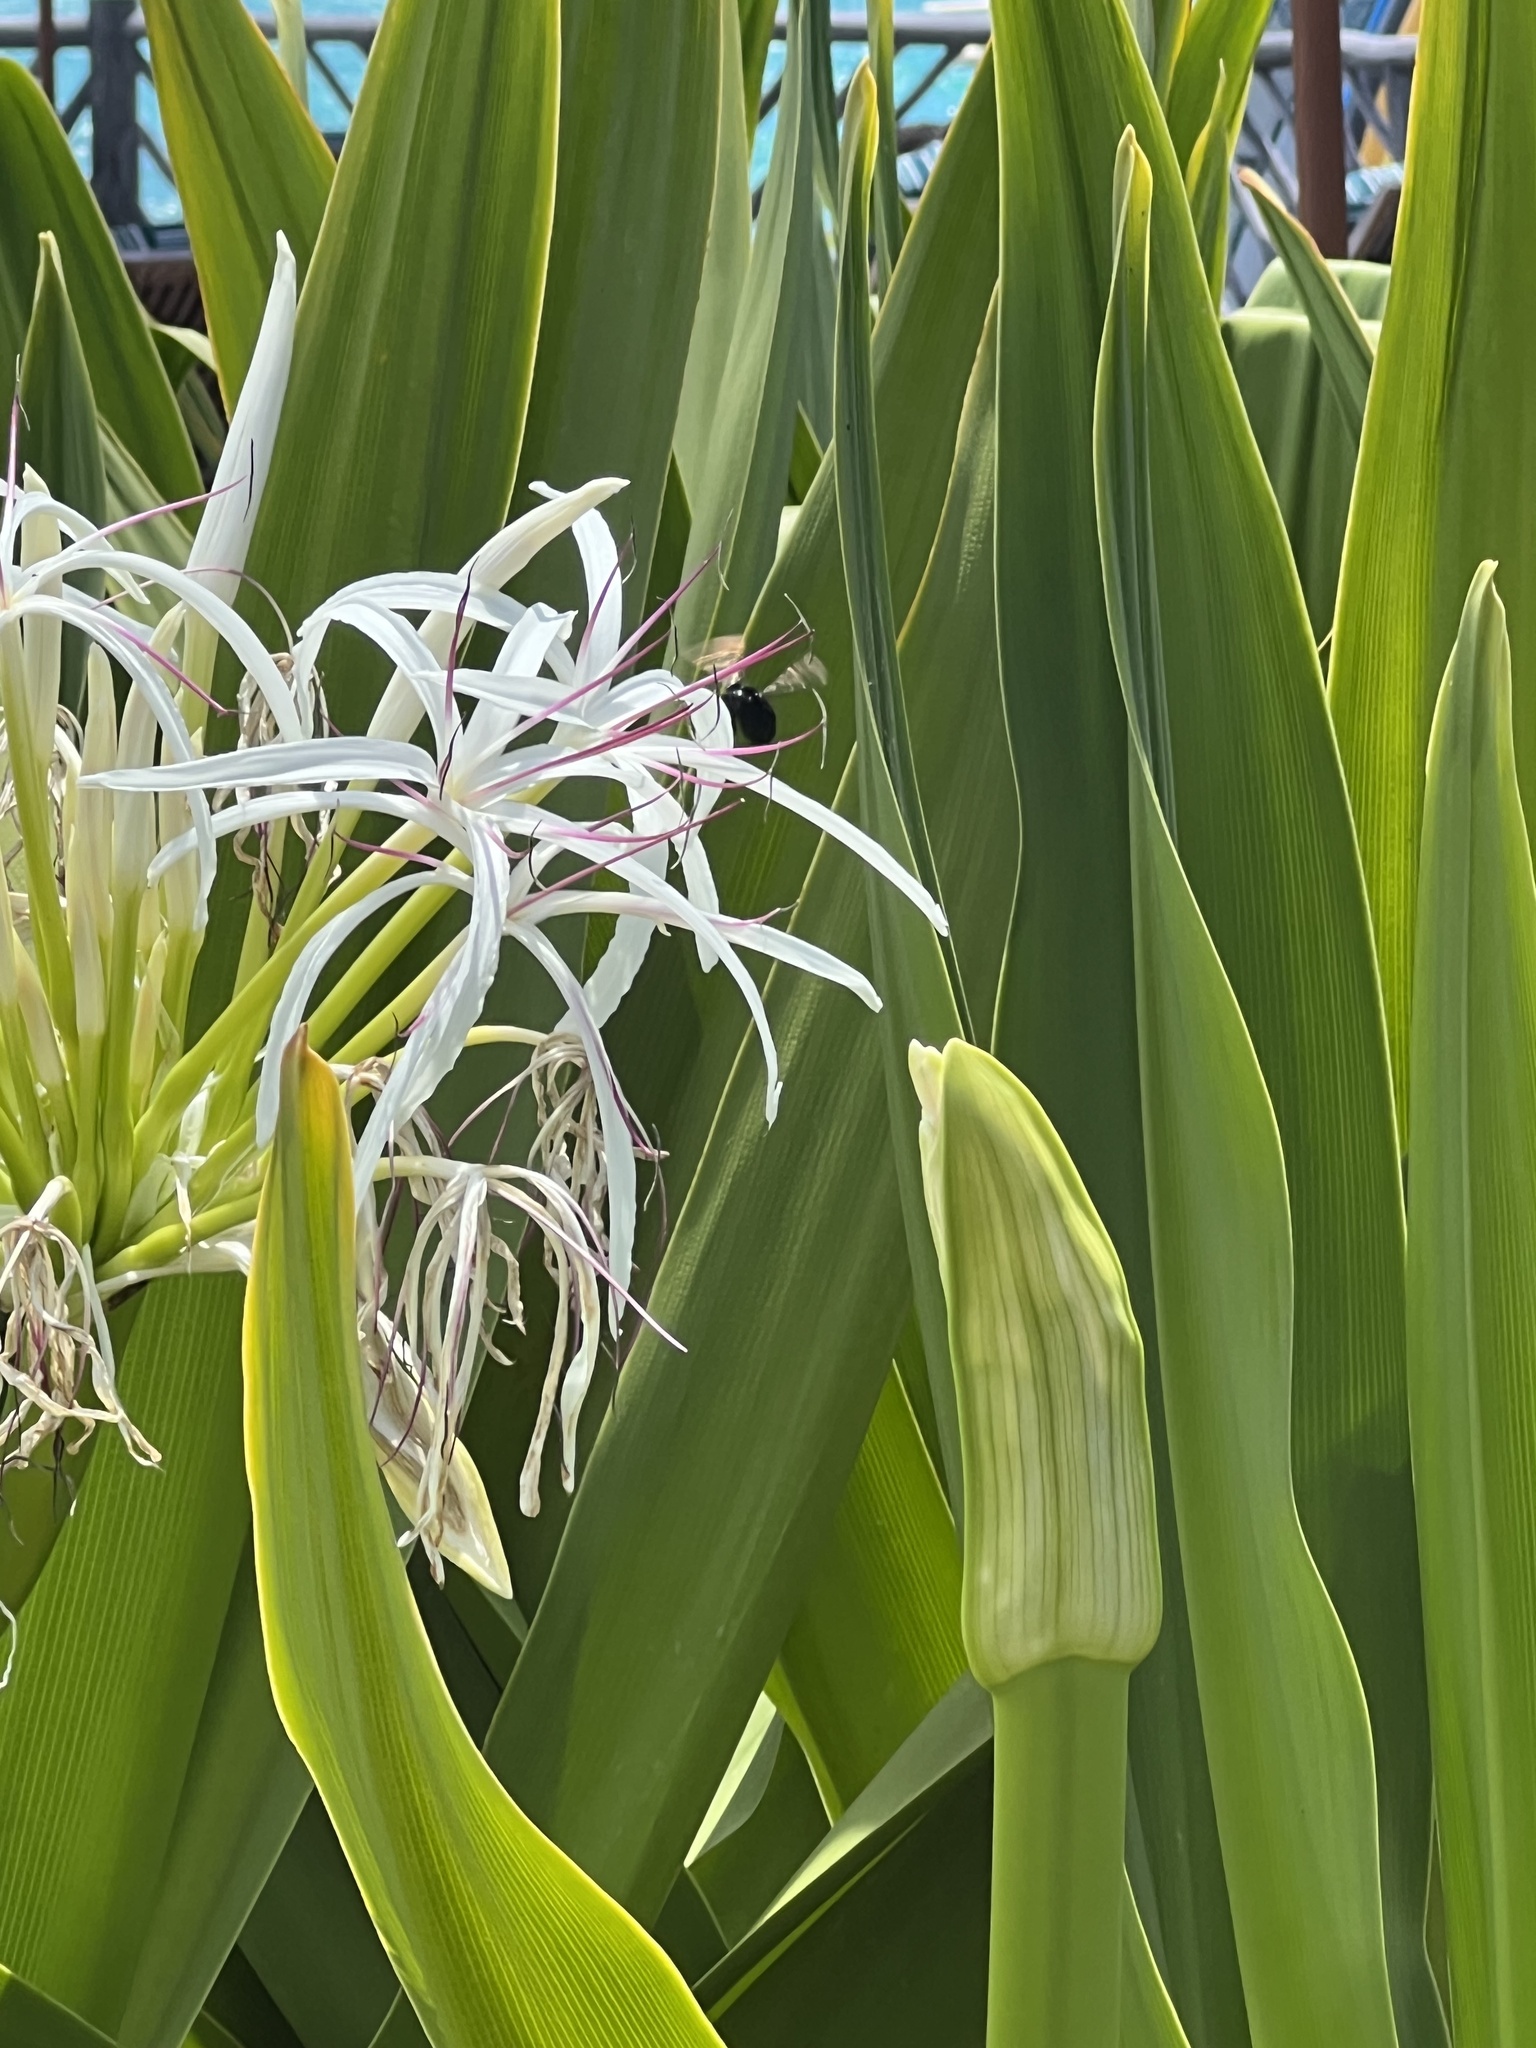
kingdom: Animalia
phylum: Arthropoda
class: Insecta
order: Hymenoptera
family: Apidae
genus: Xylocopa
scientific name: Xylocopa sonorina
